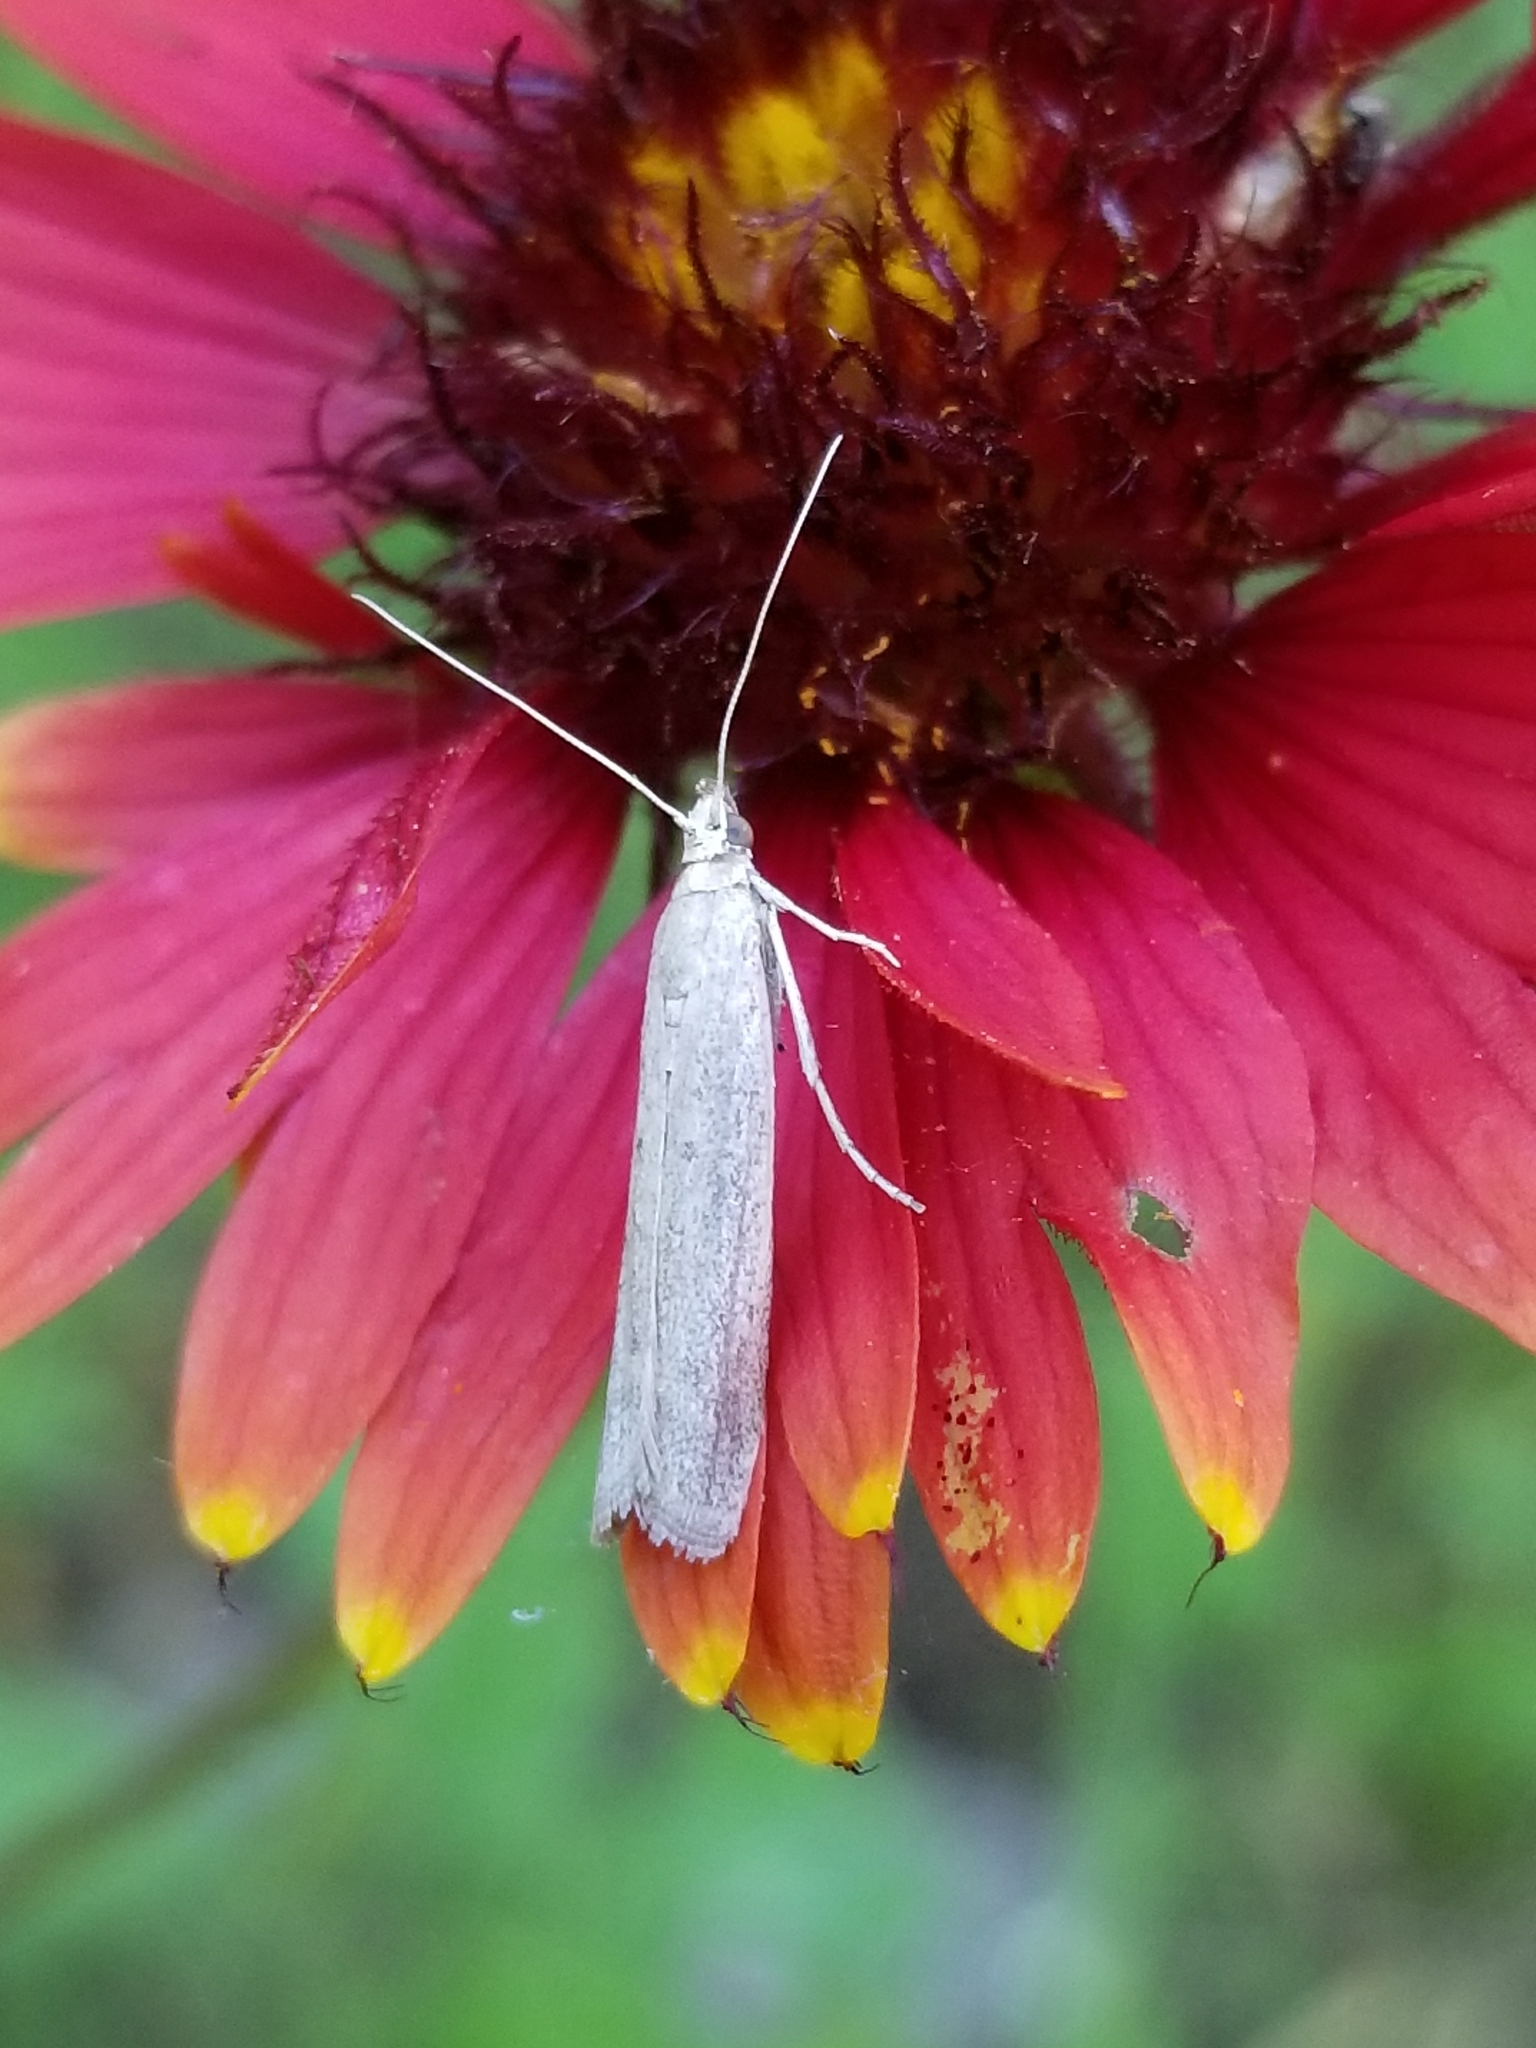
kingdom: Animalia
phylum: Arthropoda
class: Insecta
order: Lepidoptera
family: Pyralidae
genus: Homoeosoma
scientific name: Homoeosoma electella
